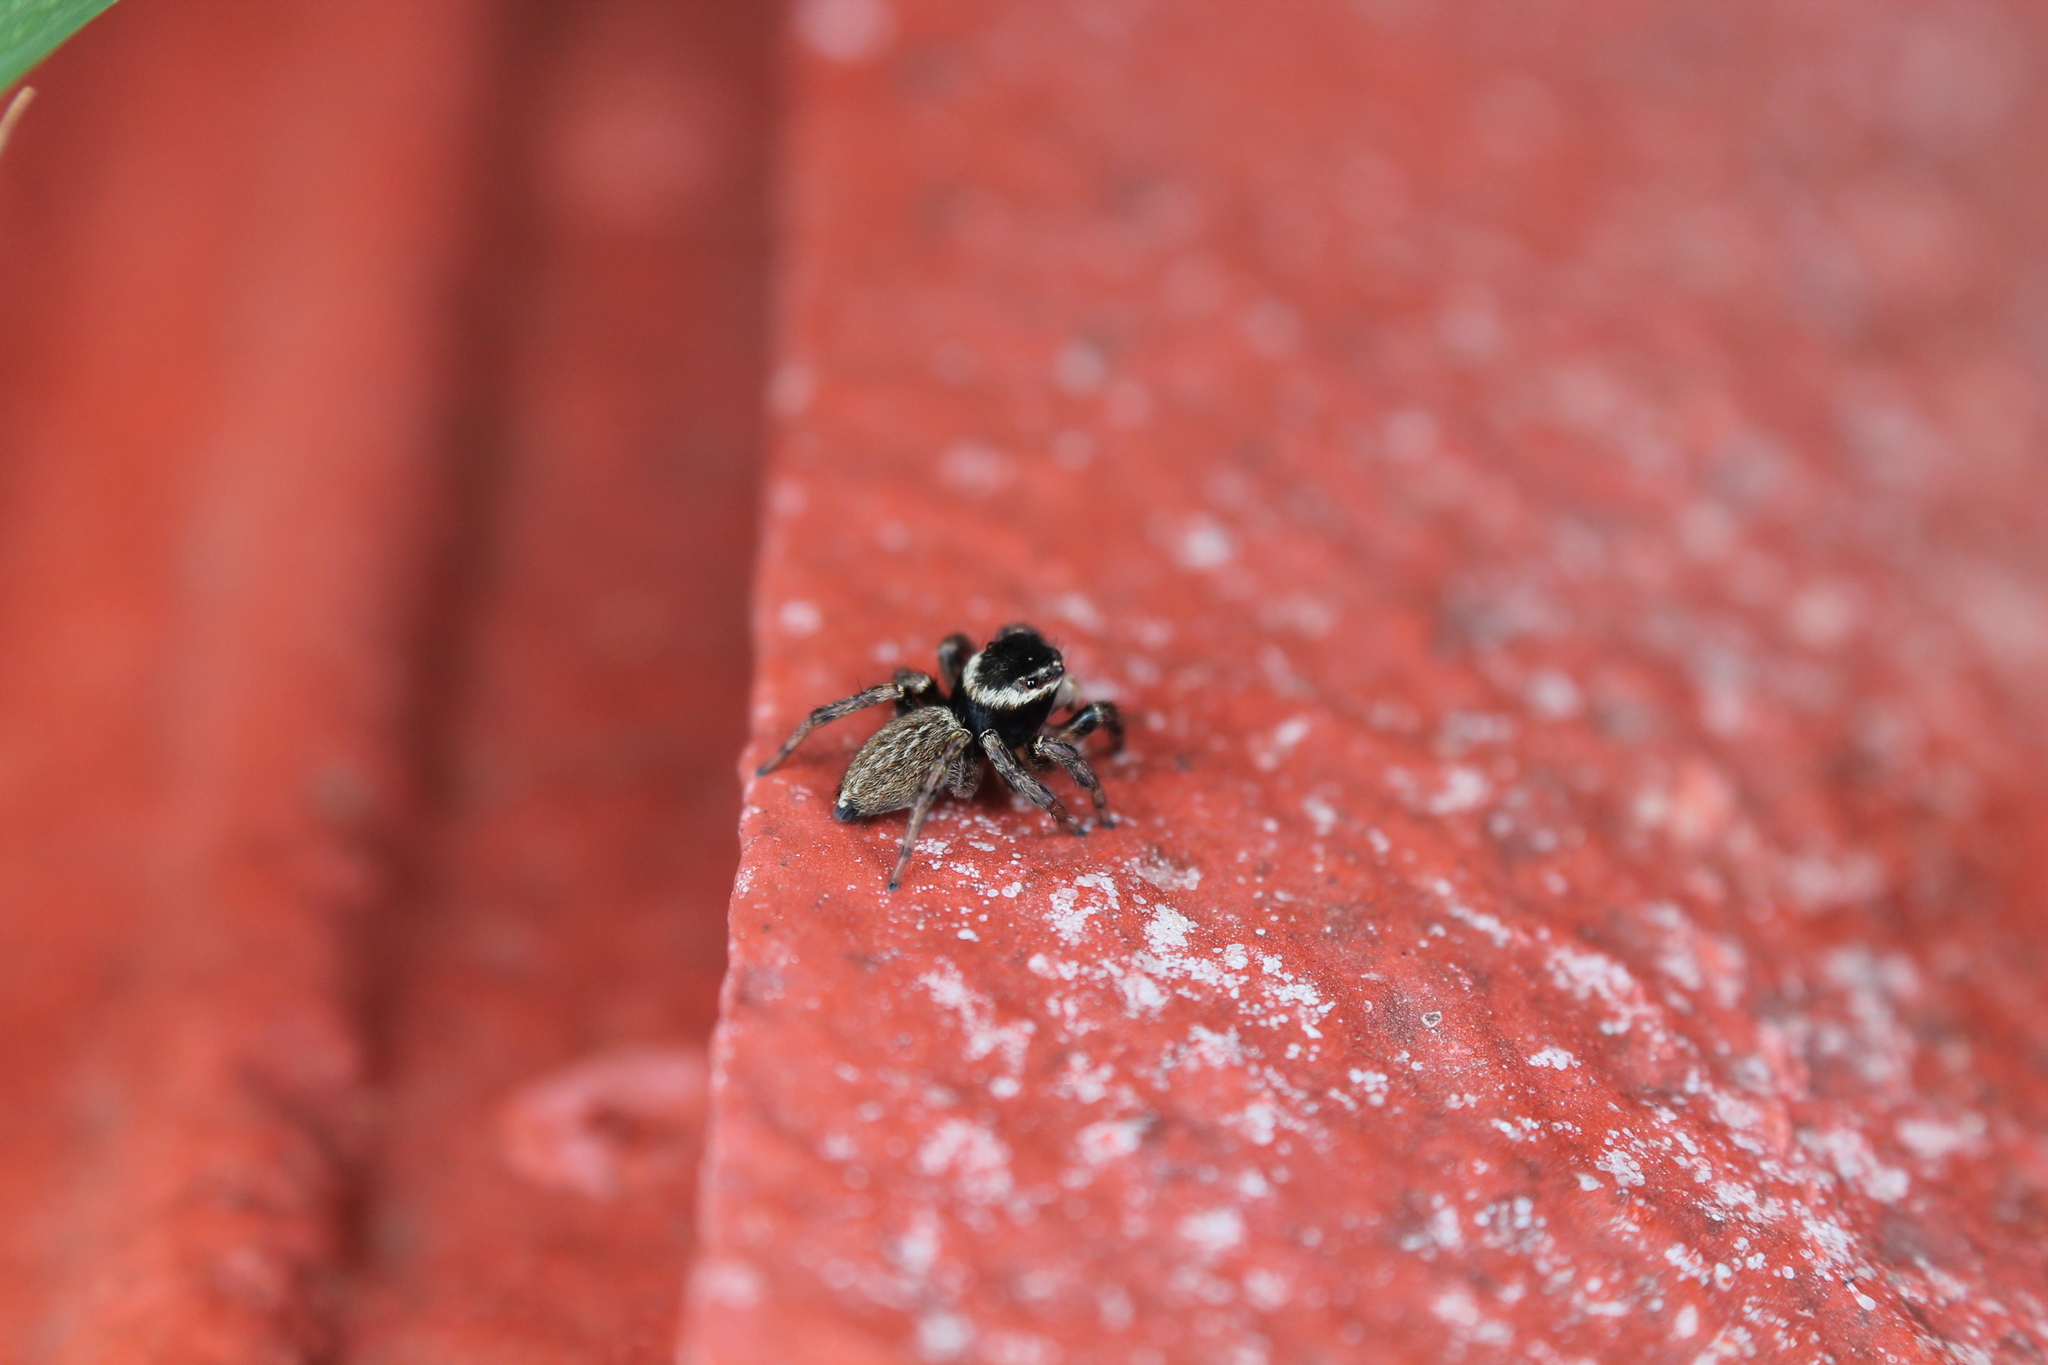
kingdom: Animalia
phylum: Arthropoda
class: Arachnida
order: Araneae
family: Salticidae
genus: Maratus
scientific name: Maratus griseus
